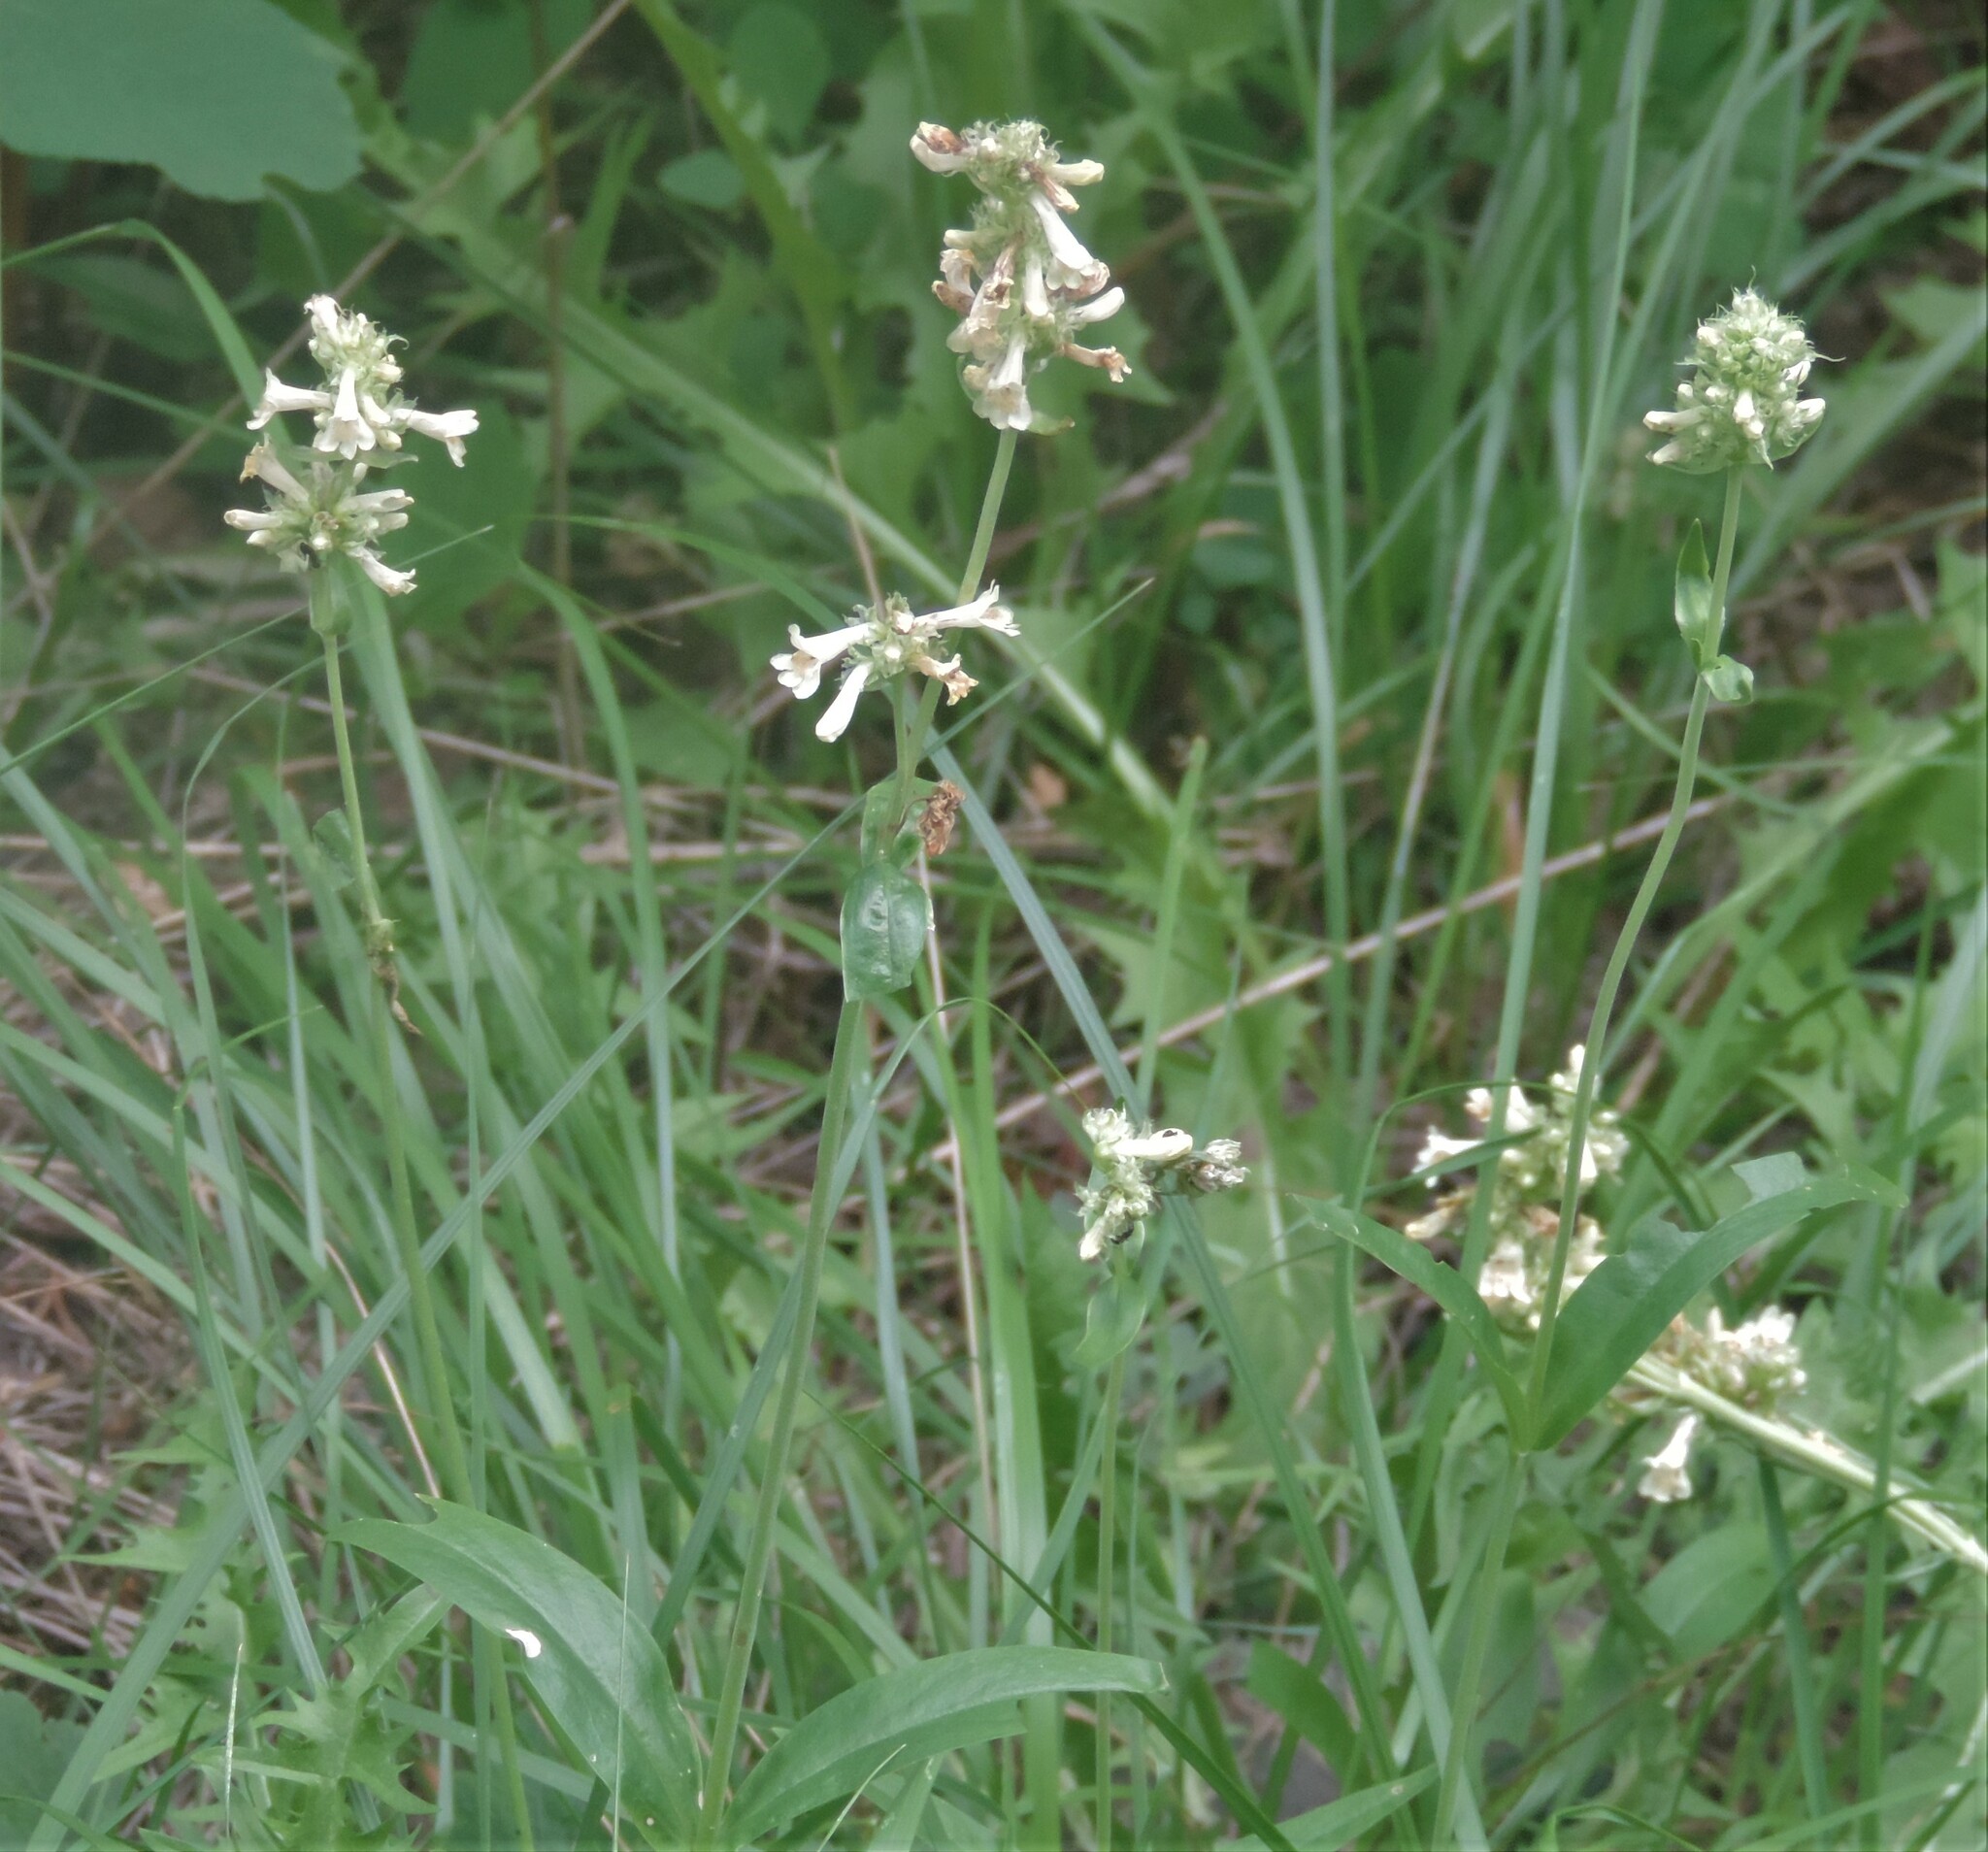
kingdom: Plantae
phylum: Tracheophyta
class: Magnoliopsida
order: Lamiales
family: Plantaginaceae
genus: Penstemon
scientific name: Penstemon confertus
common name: Lesser yellow beardtongue
